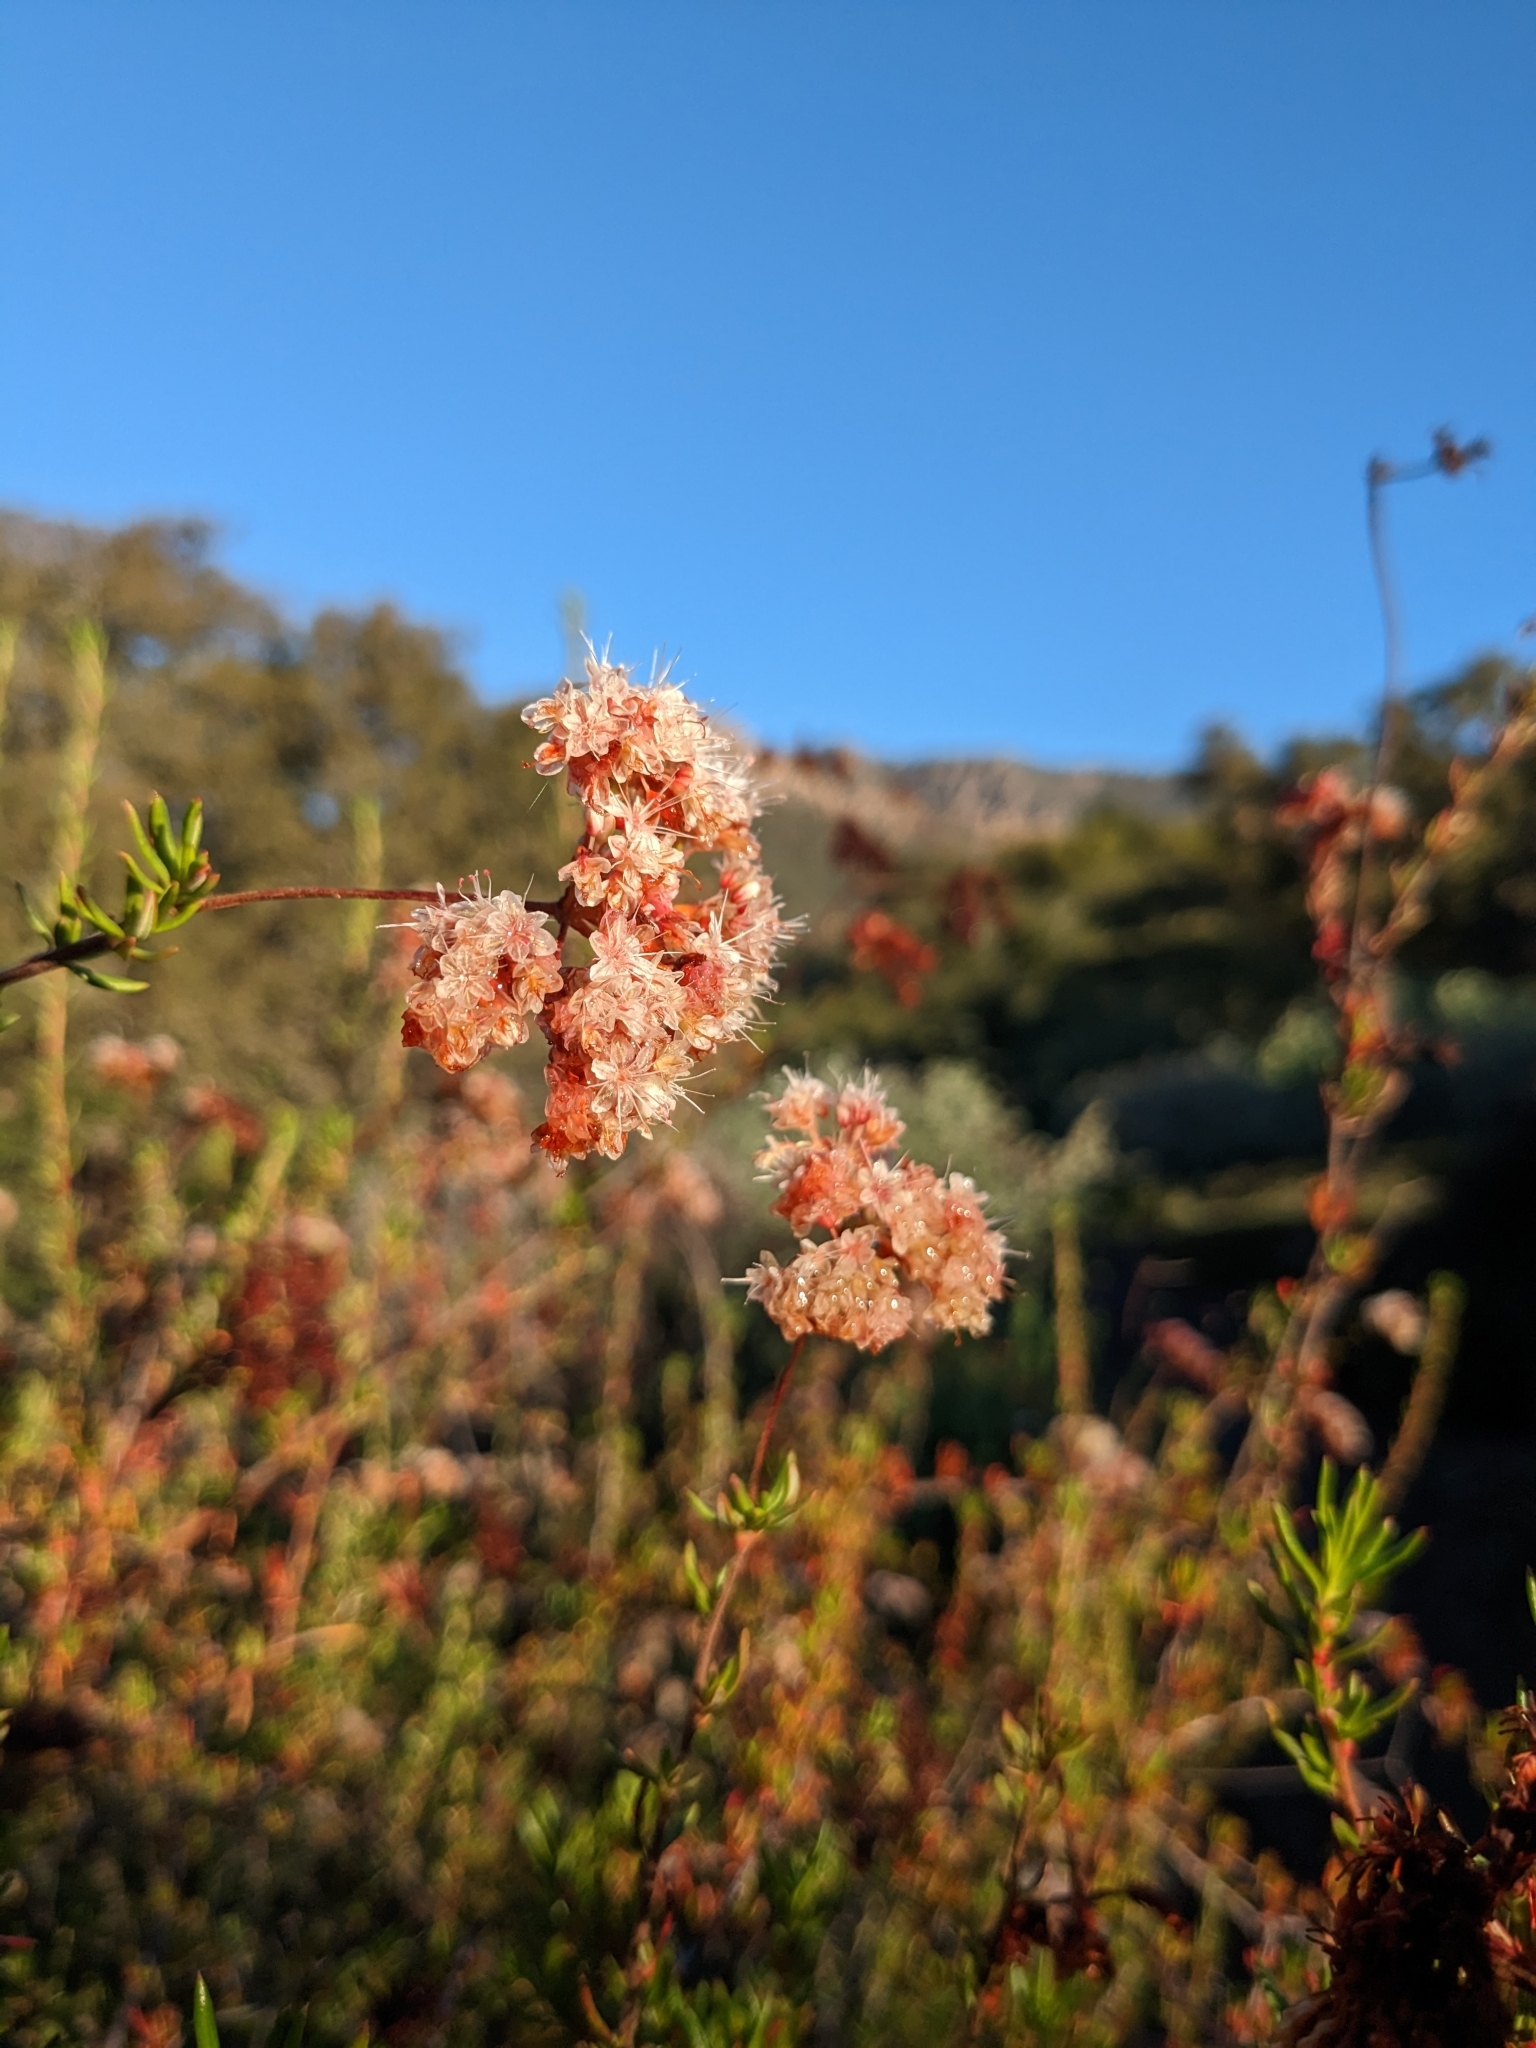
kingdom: Plantae
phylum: Tracheophyta
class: Magnoliopsida
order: Caryophyllales
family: Polygonaceae
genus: Eriogonum
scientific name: Eriogonum fasciculatum
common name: California wild buckwheat
